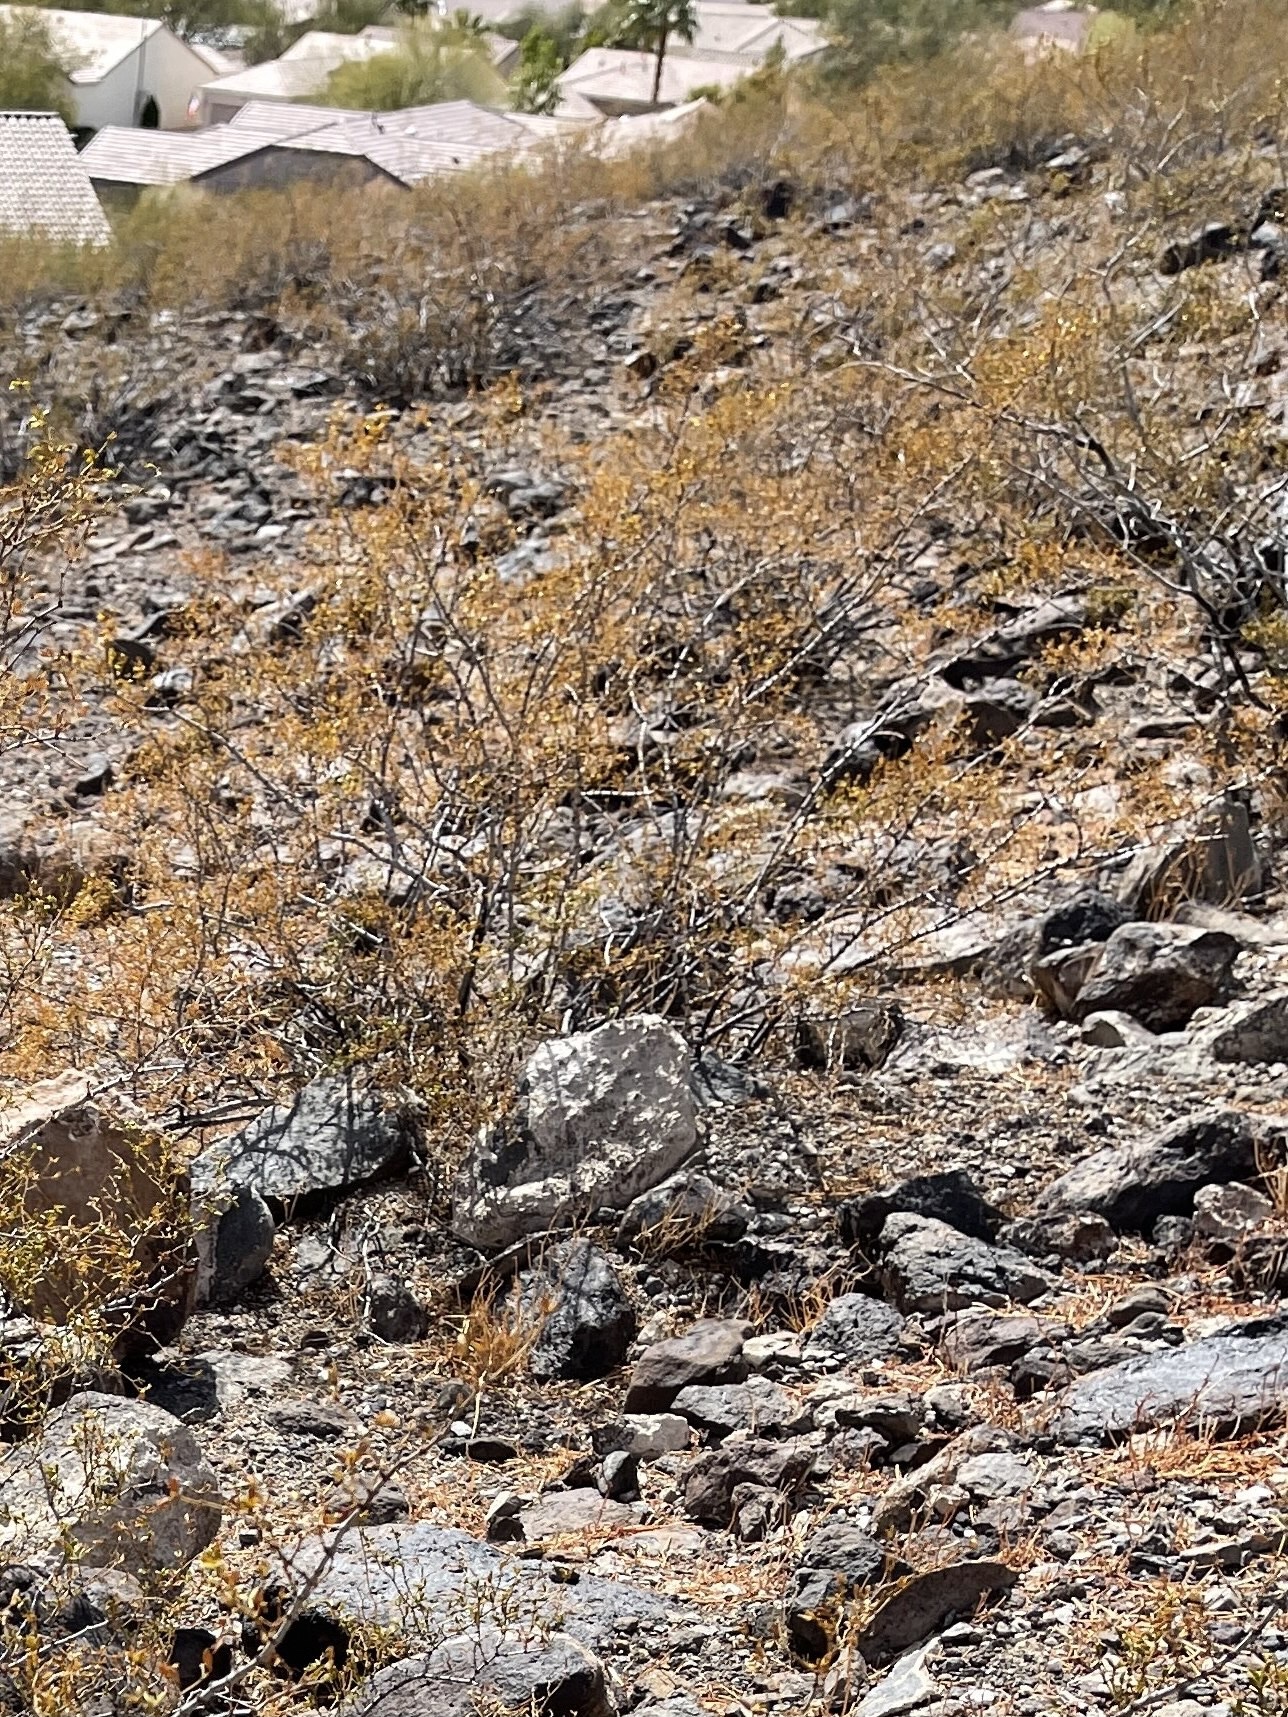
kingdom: Plantae
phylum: Tracheophyta
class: Magnoliopsida
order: Zygophyllales
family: Zygophyllaceae
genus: Larrea
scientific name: Larrea tridentata
